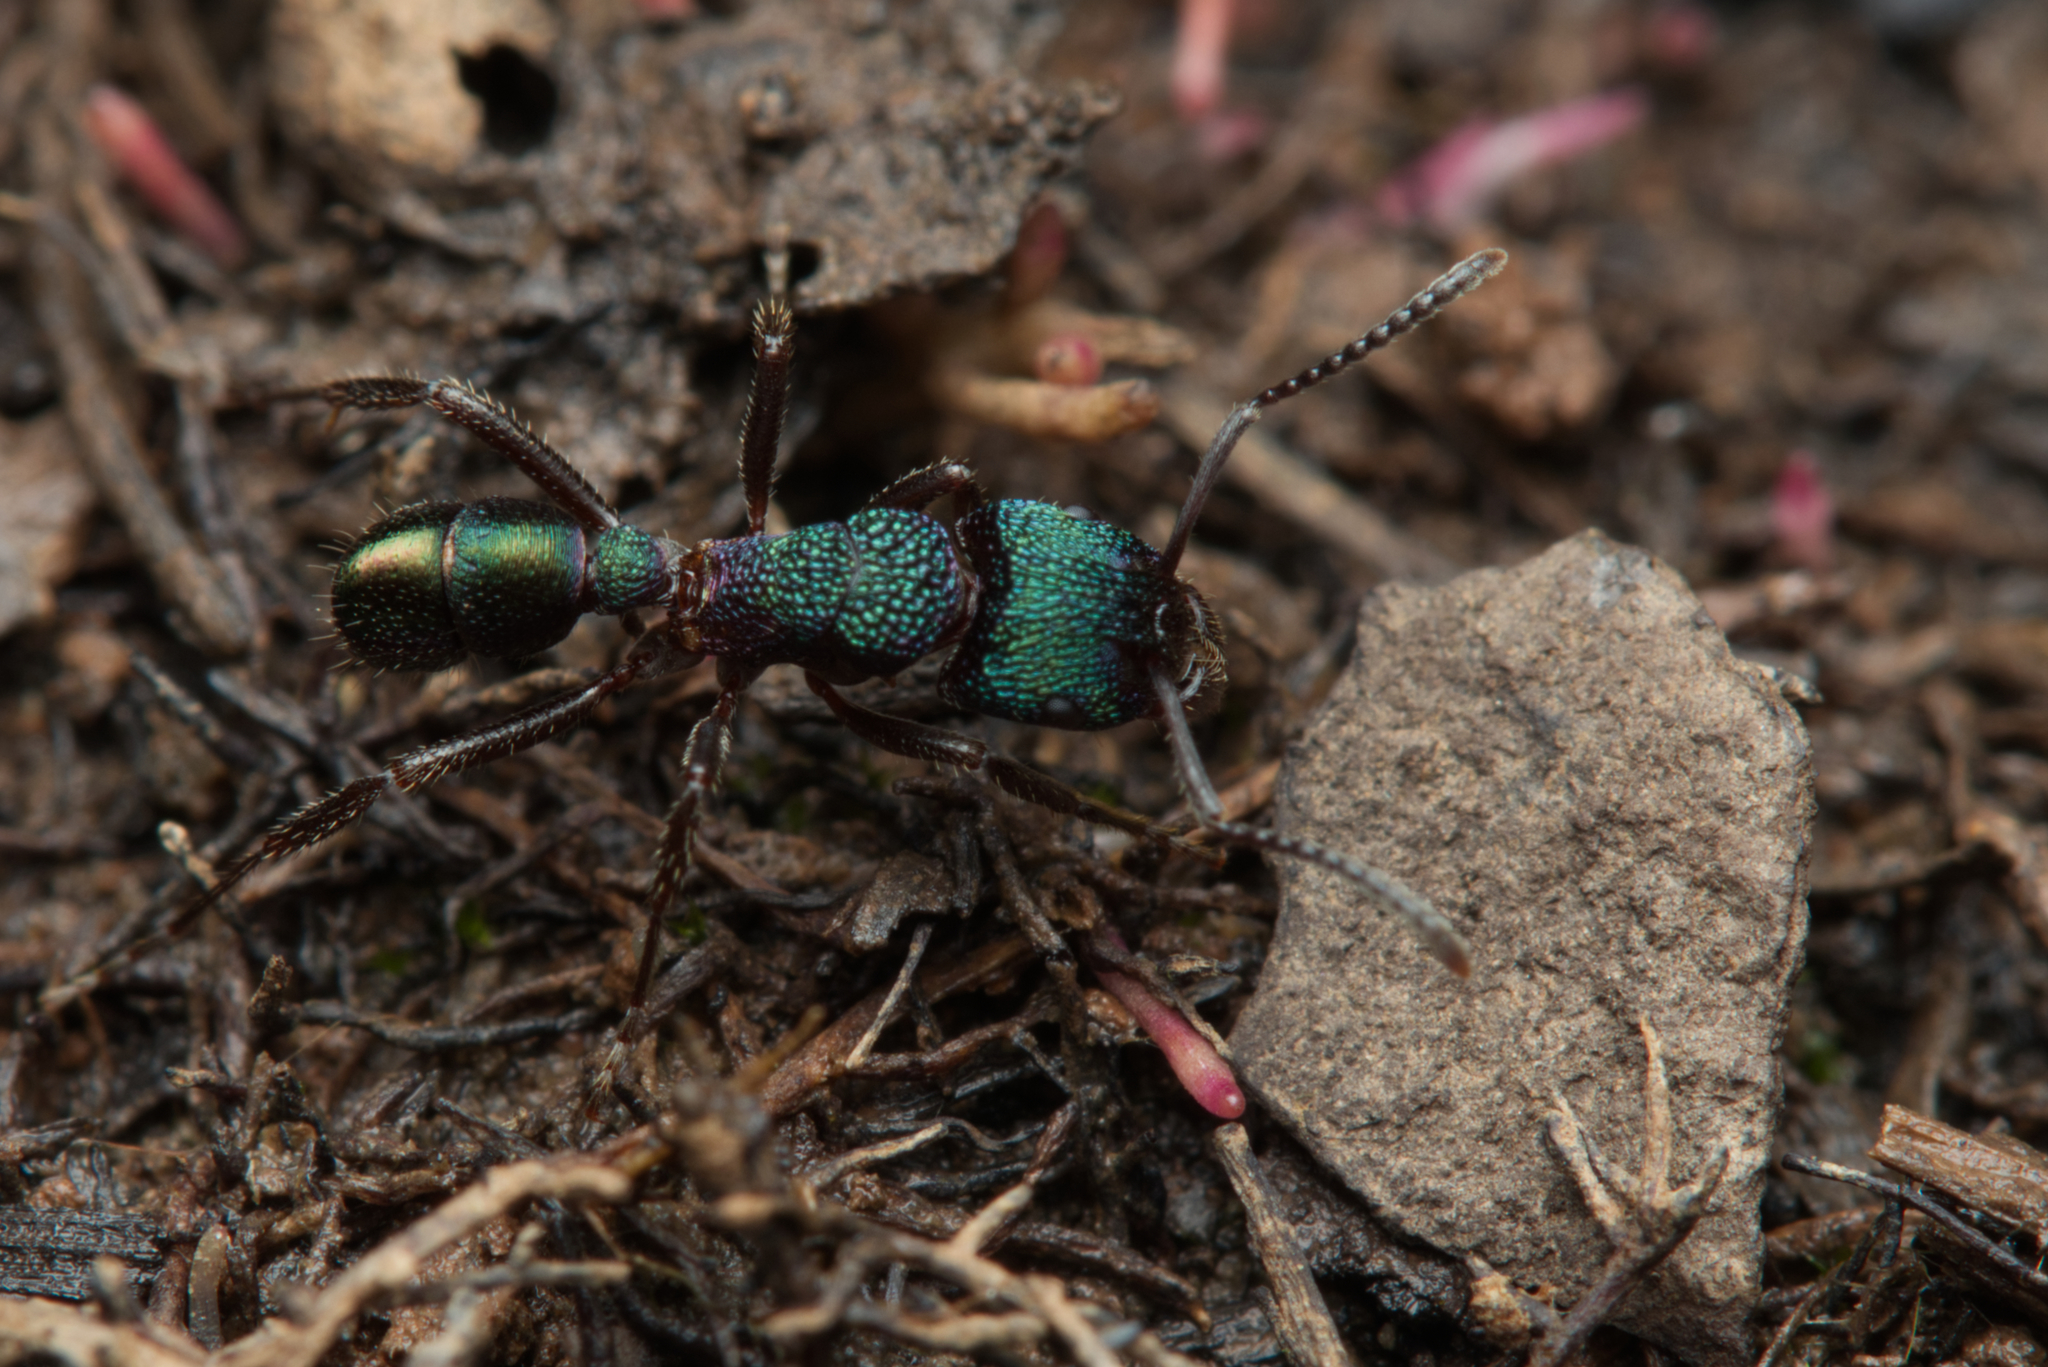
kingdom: Animalia
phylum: Arthropoda
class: Insecta
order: Hymenoptera
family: Formicidae
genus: Rhytidoponera
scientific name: Rhytidoponera metallica
